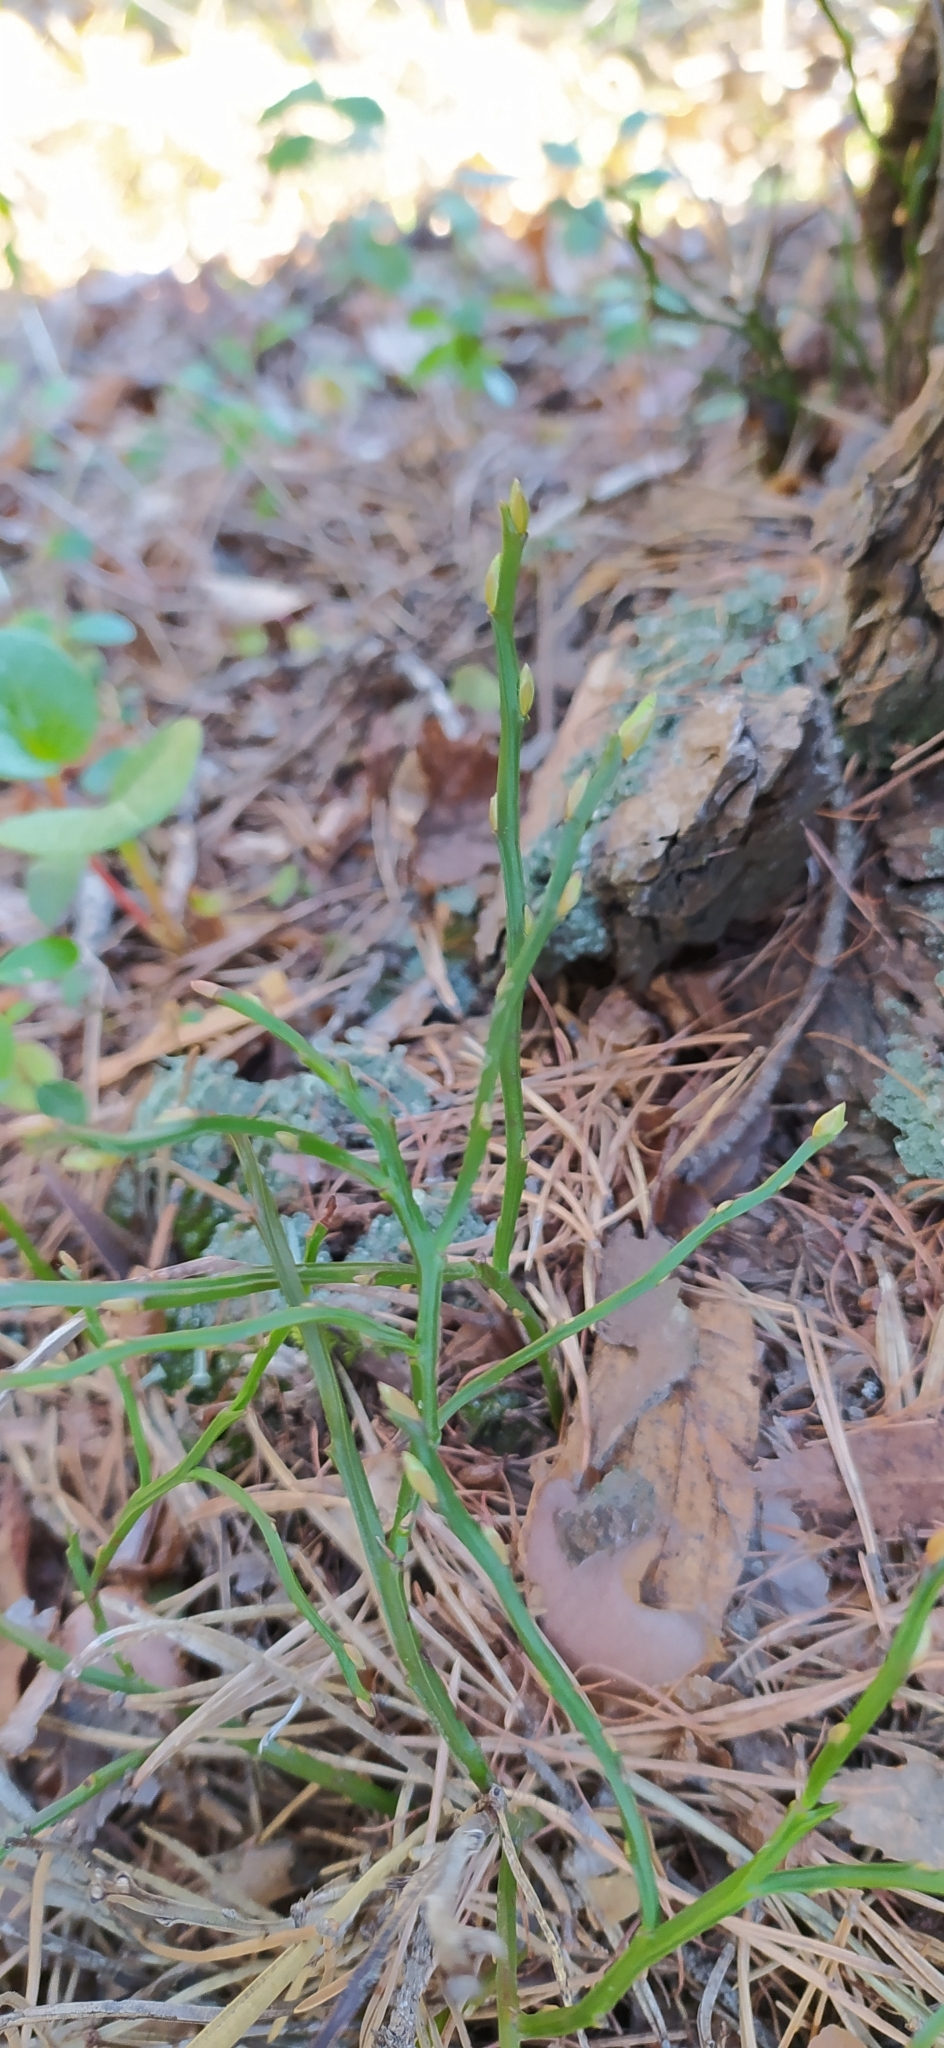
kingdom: Plantae
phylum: Tracheophyta
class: Magnoliopsida
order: Ericales
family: Ericaceae
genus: Vaccinium
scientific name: Vaccinium myrtillus
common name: Bilberry
